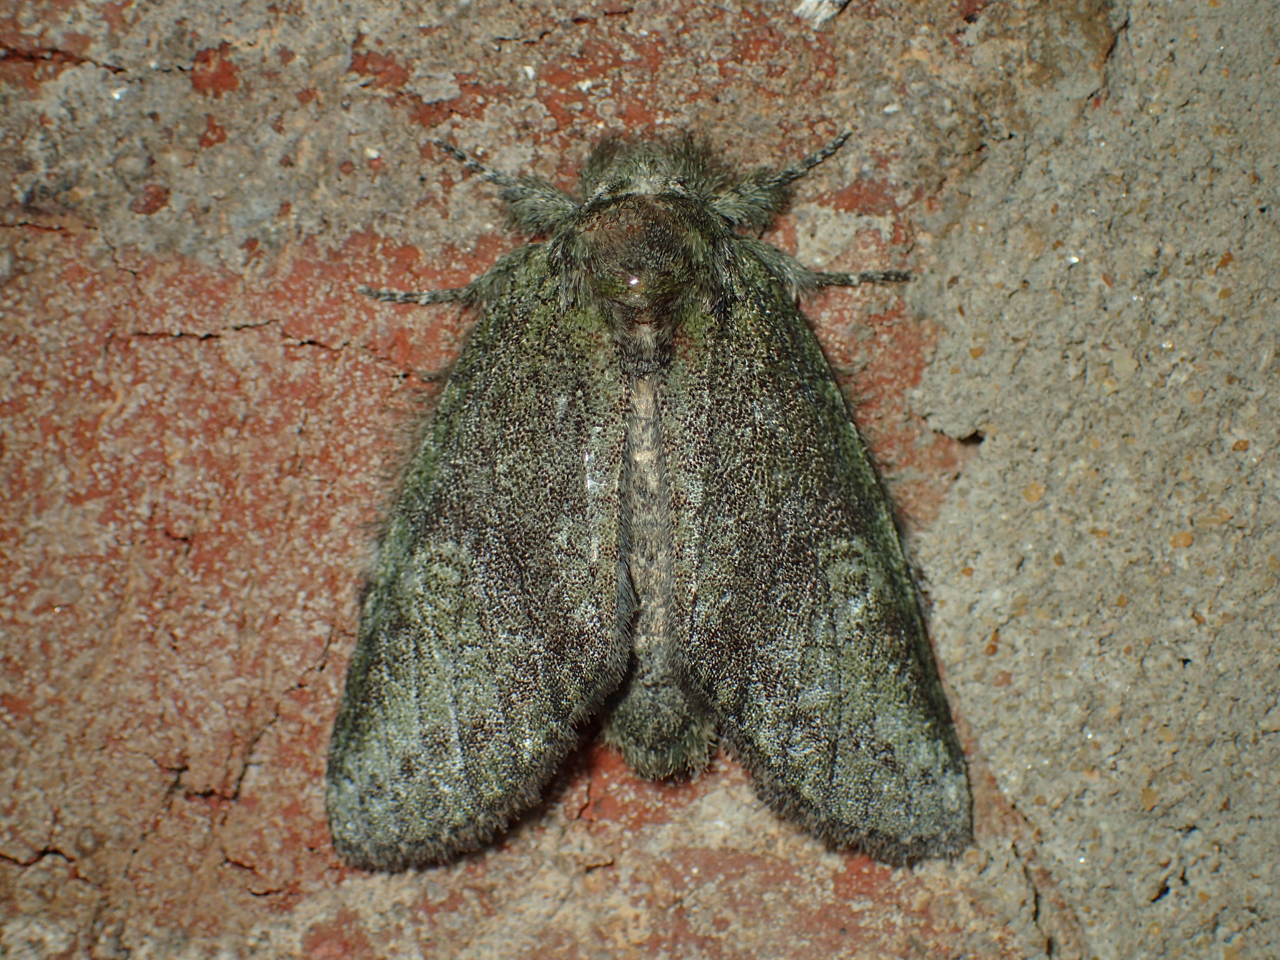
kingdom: Animalia
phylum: Arthropoda
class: Insecta
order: Lepidoptera
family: Notodontidae
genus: Disphragis
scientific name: Disphragis Cecrita guttivitta
